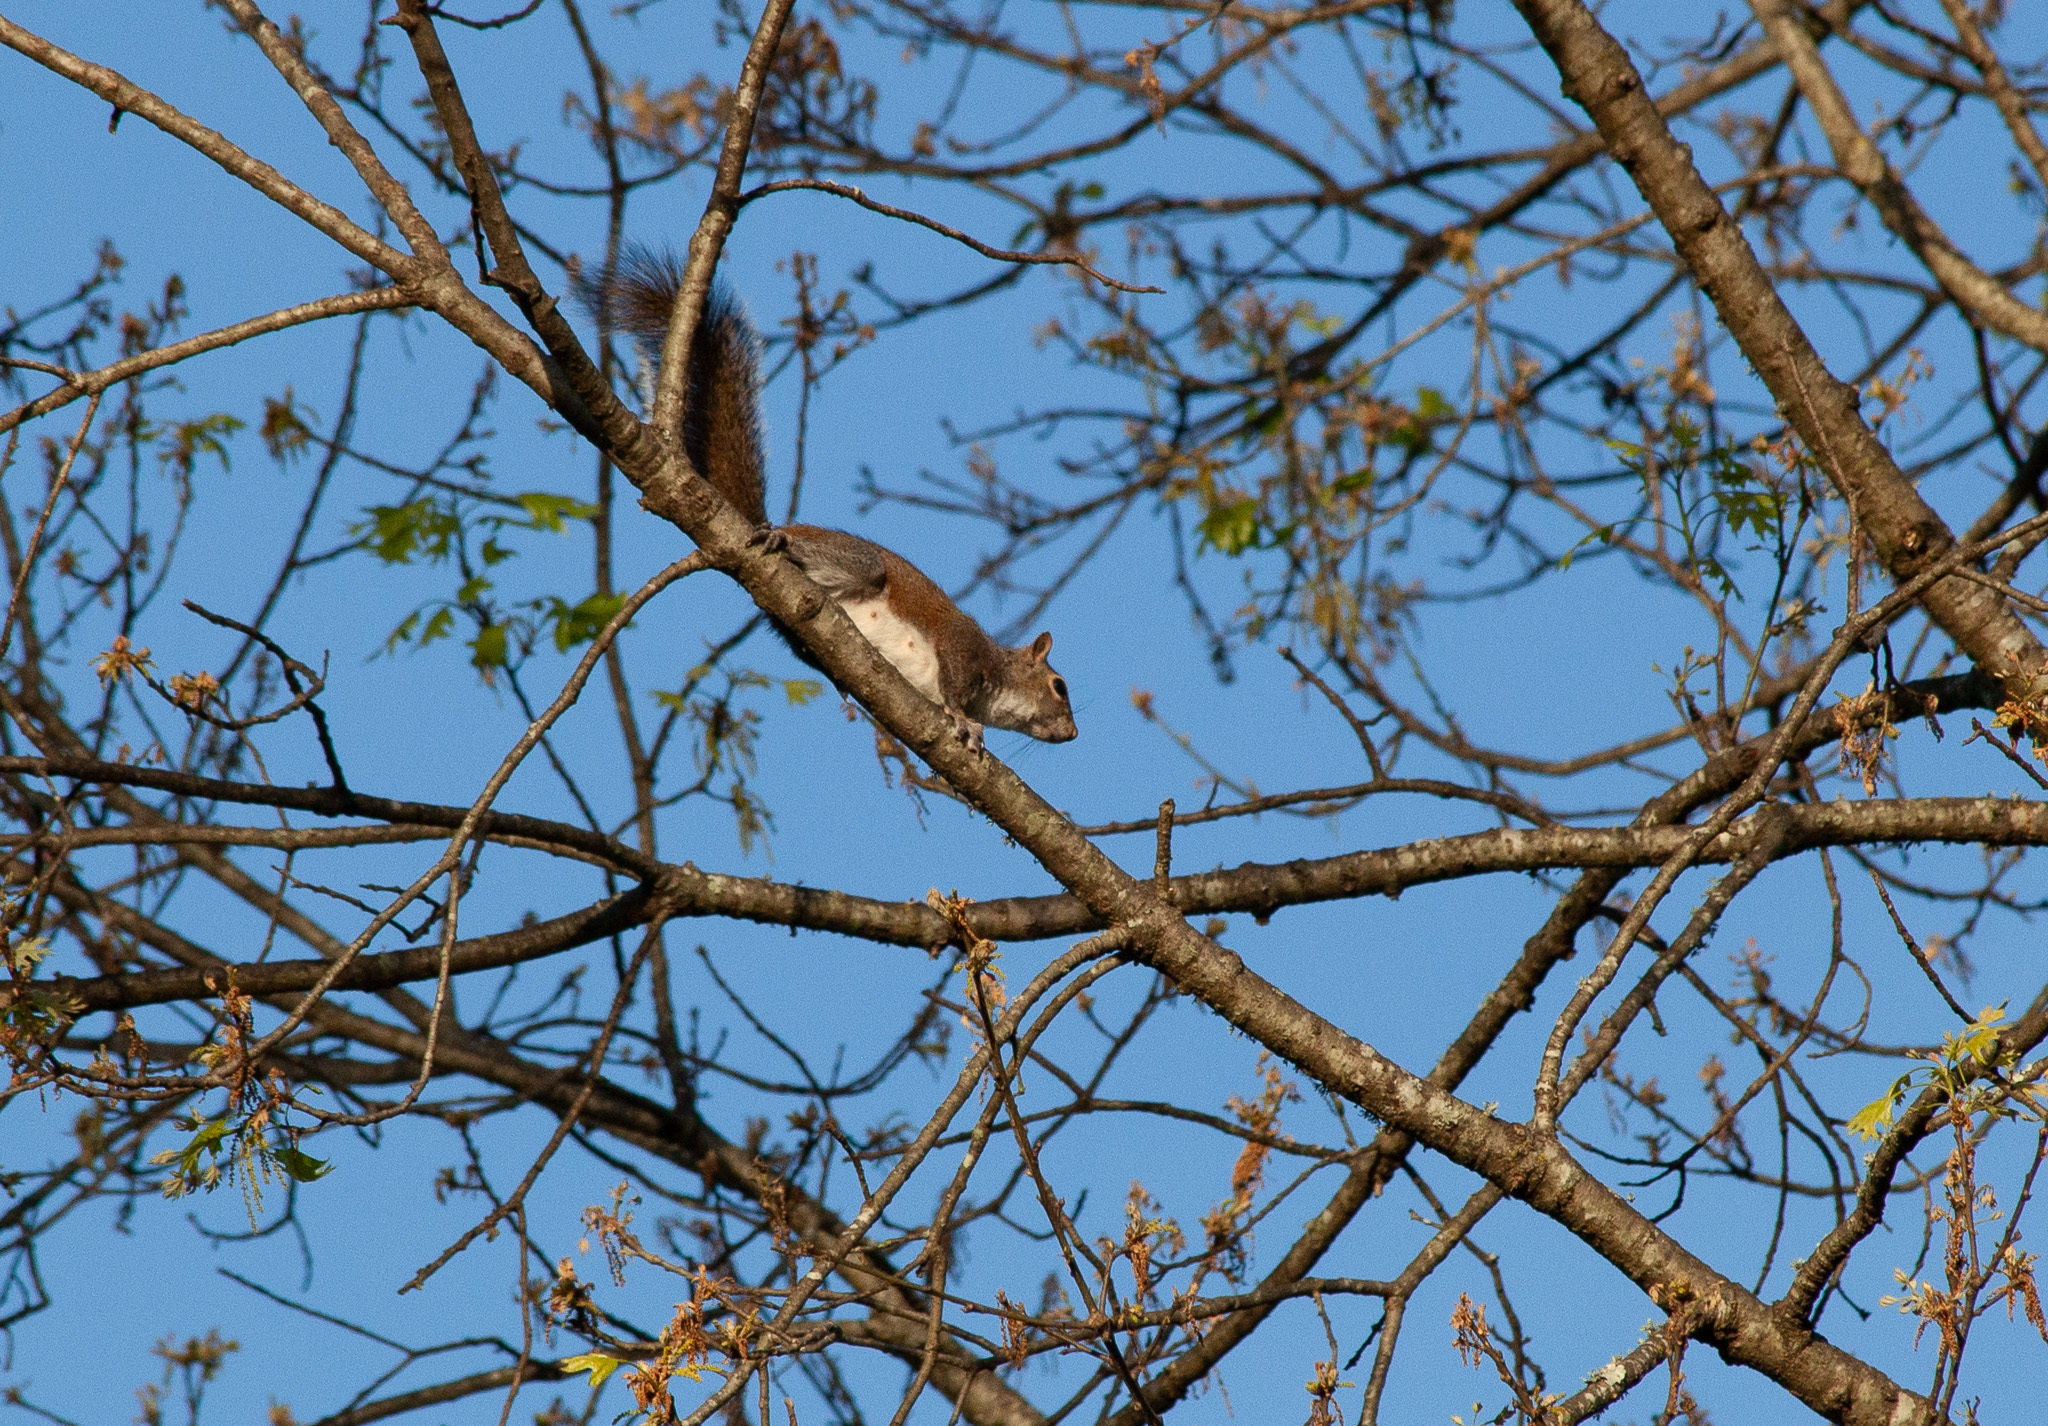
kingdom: Animalia
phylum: Chordata
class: Mammalia
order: Rodentia
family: Sciuridae
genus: Sciurus
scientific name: Sciurus carolinensis
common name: Eastern gray squirrel
